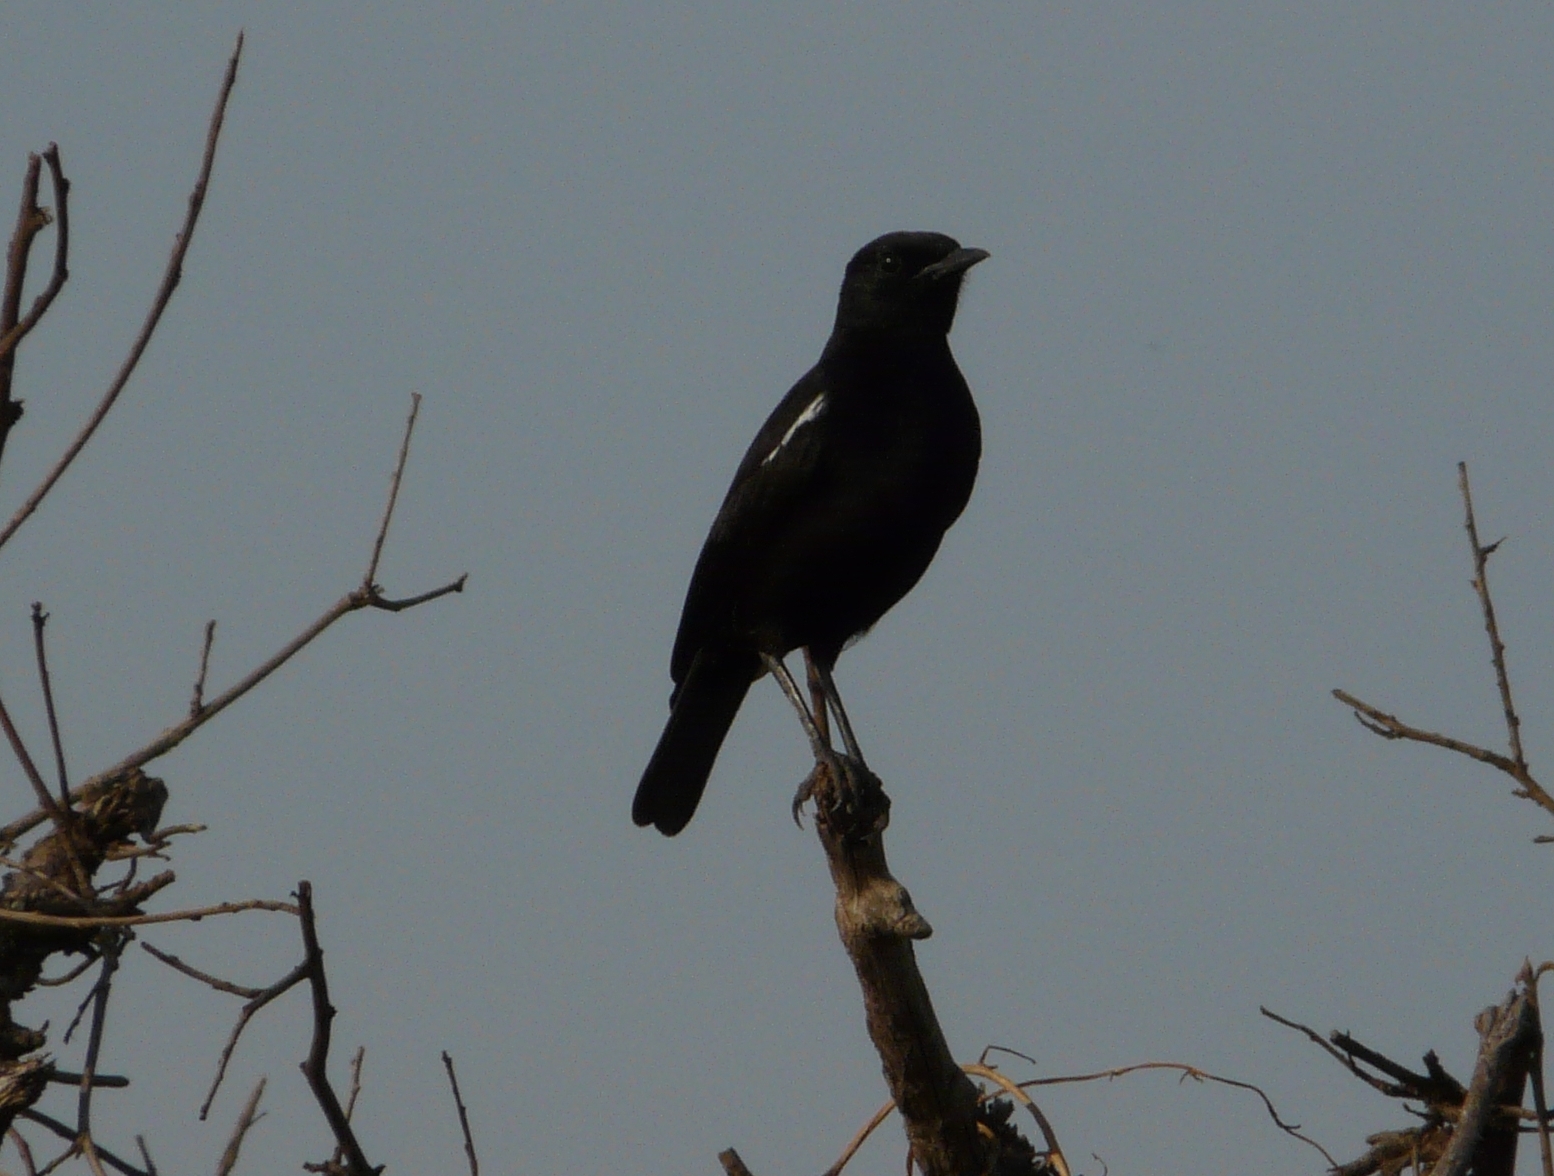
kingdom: Animalia
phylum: Chordata
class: Aves
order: Passeriformes
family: Muscicapidae
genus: Myrmecocichla
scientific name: Myrmecocichla nigra
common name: Sooty chat
